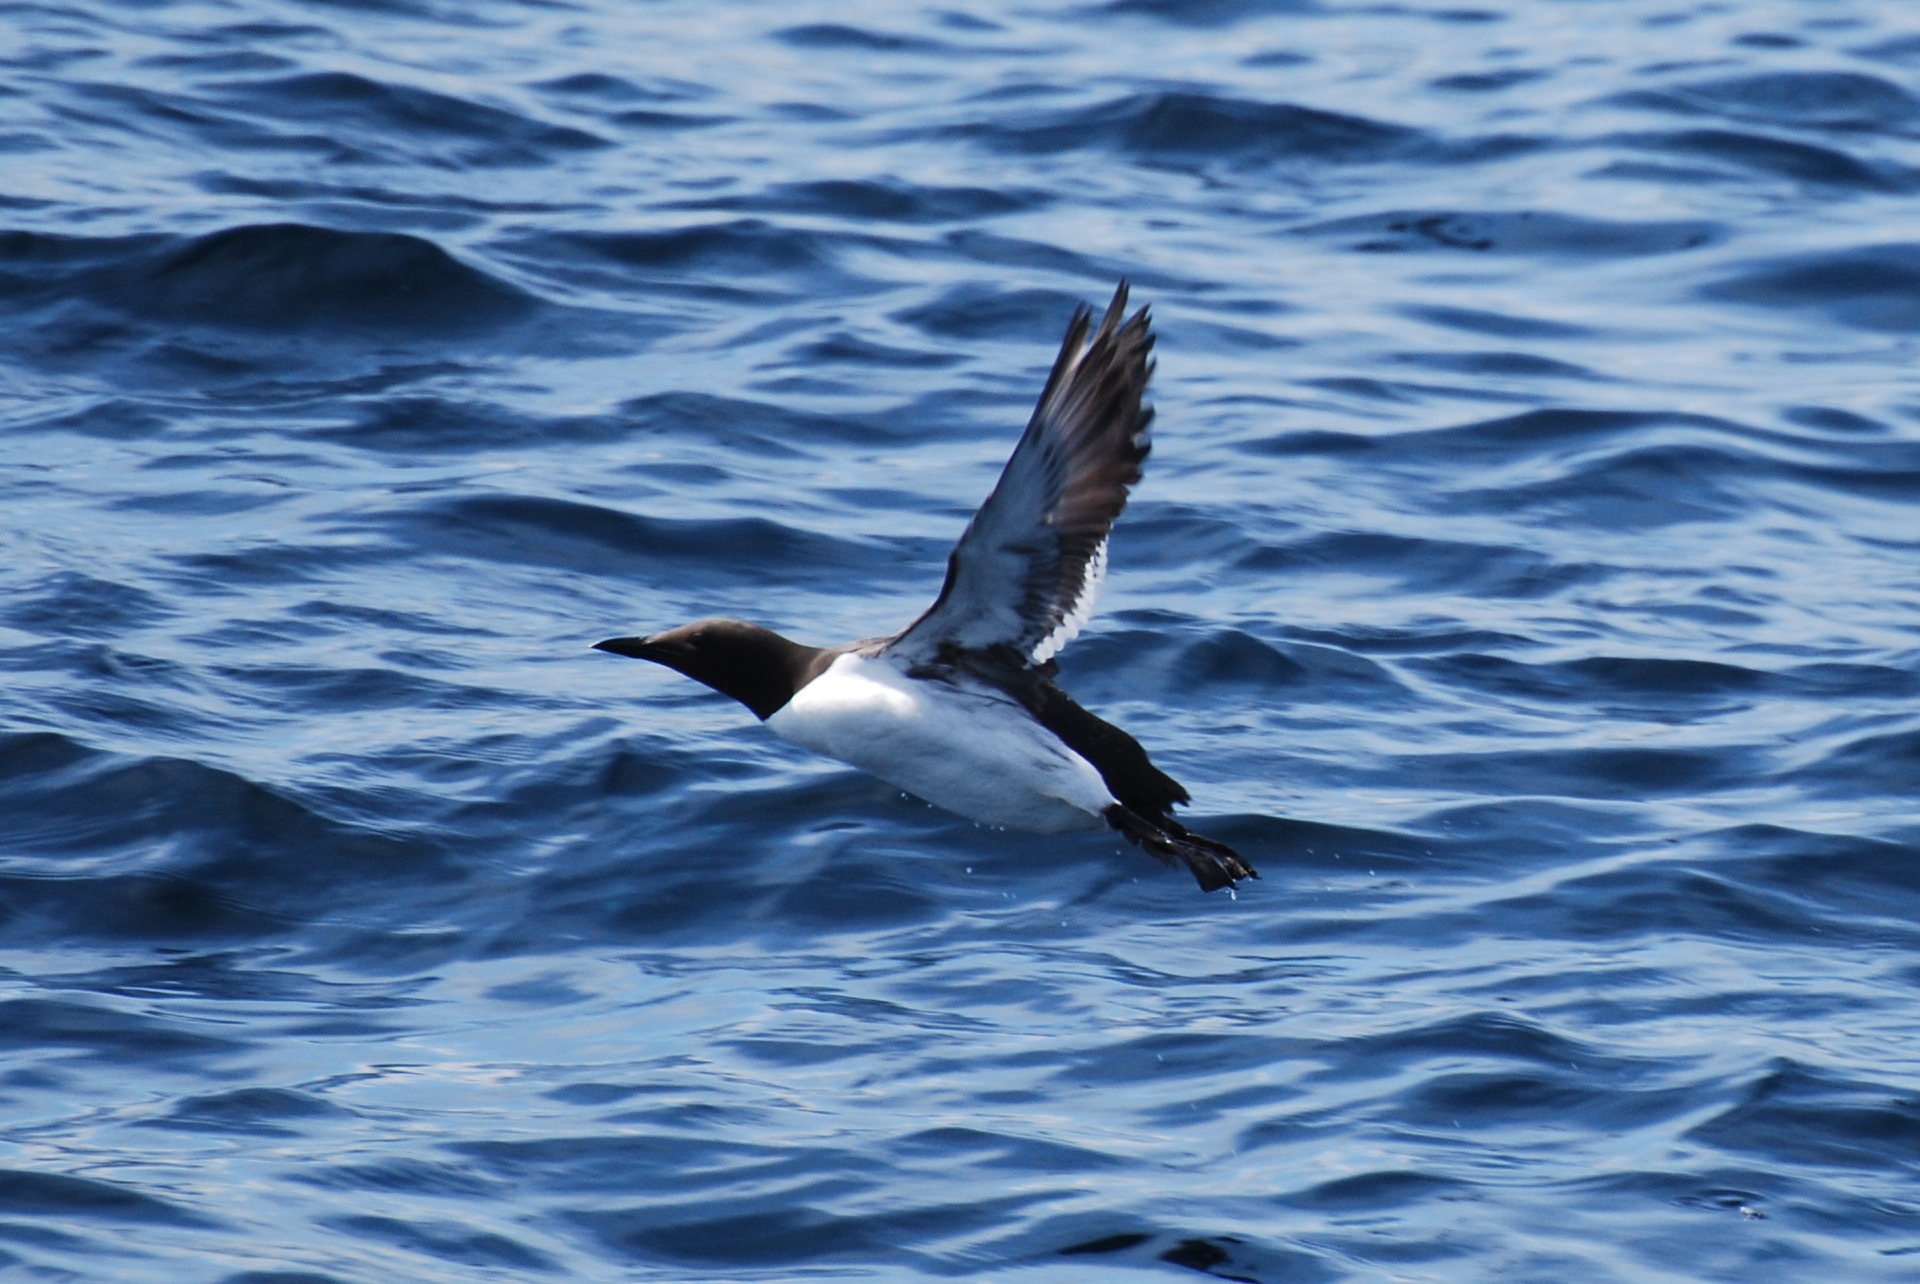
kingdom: Animalia
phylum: Chordata
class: Aves
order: Charadriiformes
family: Alcidae
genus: Uria
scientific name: Uria aalge
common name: Common murre
